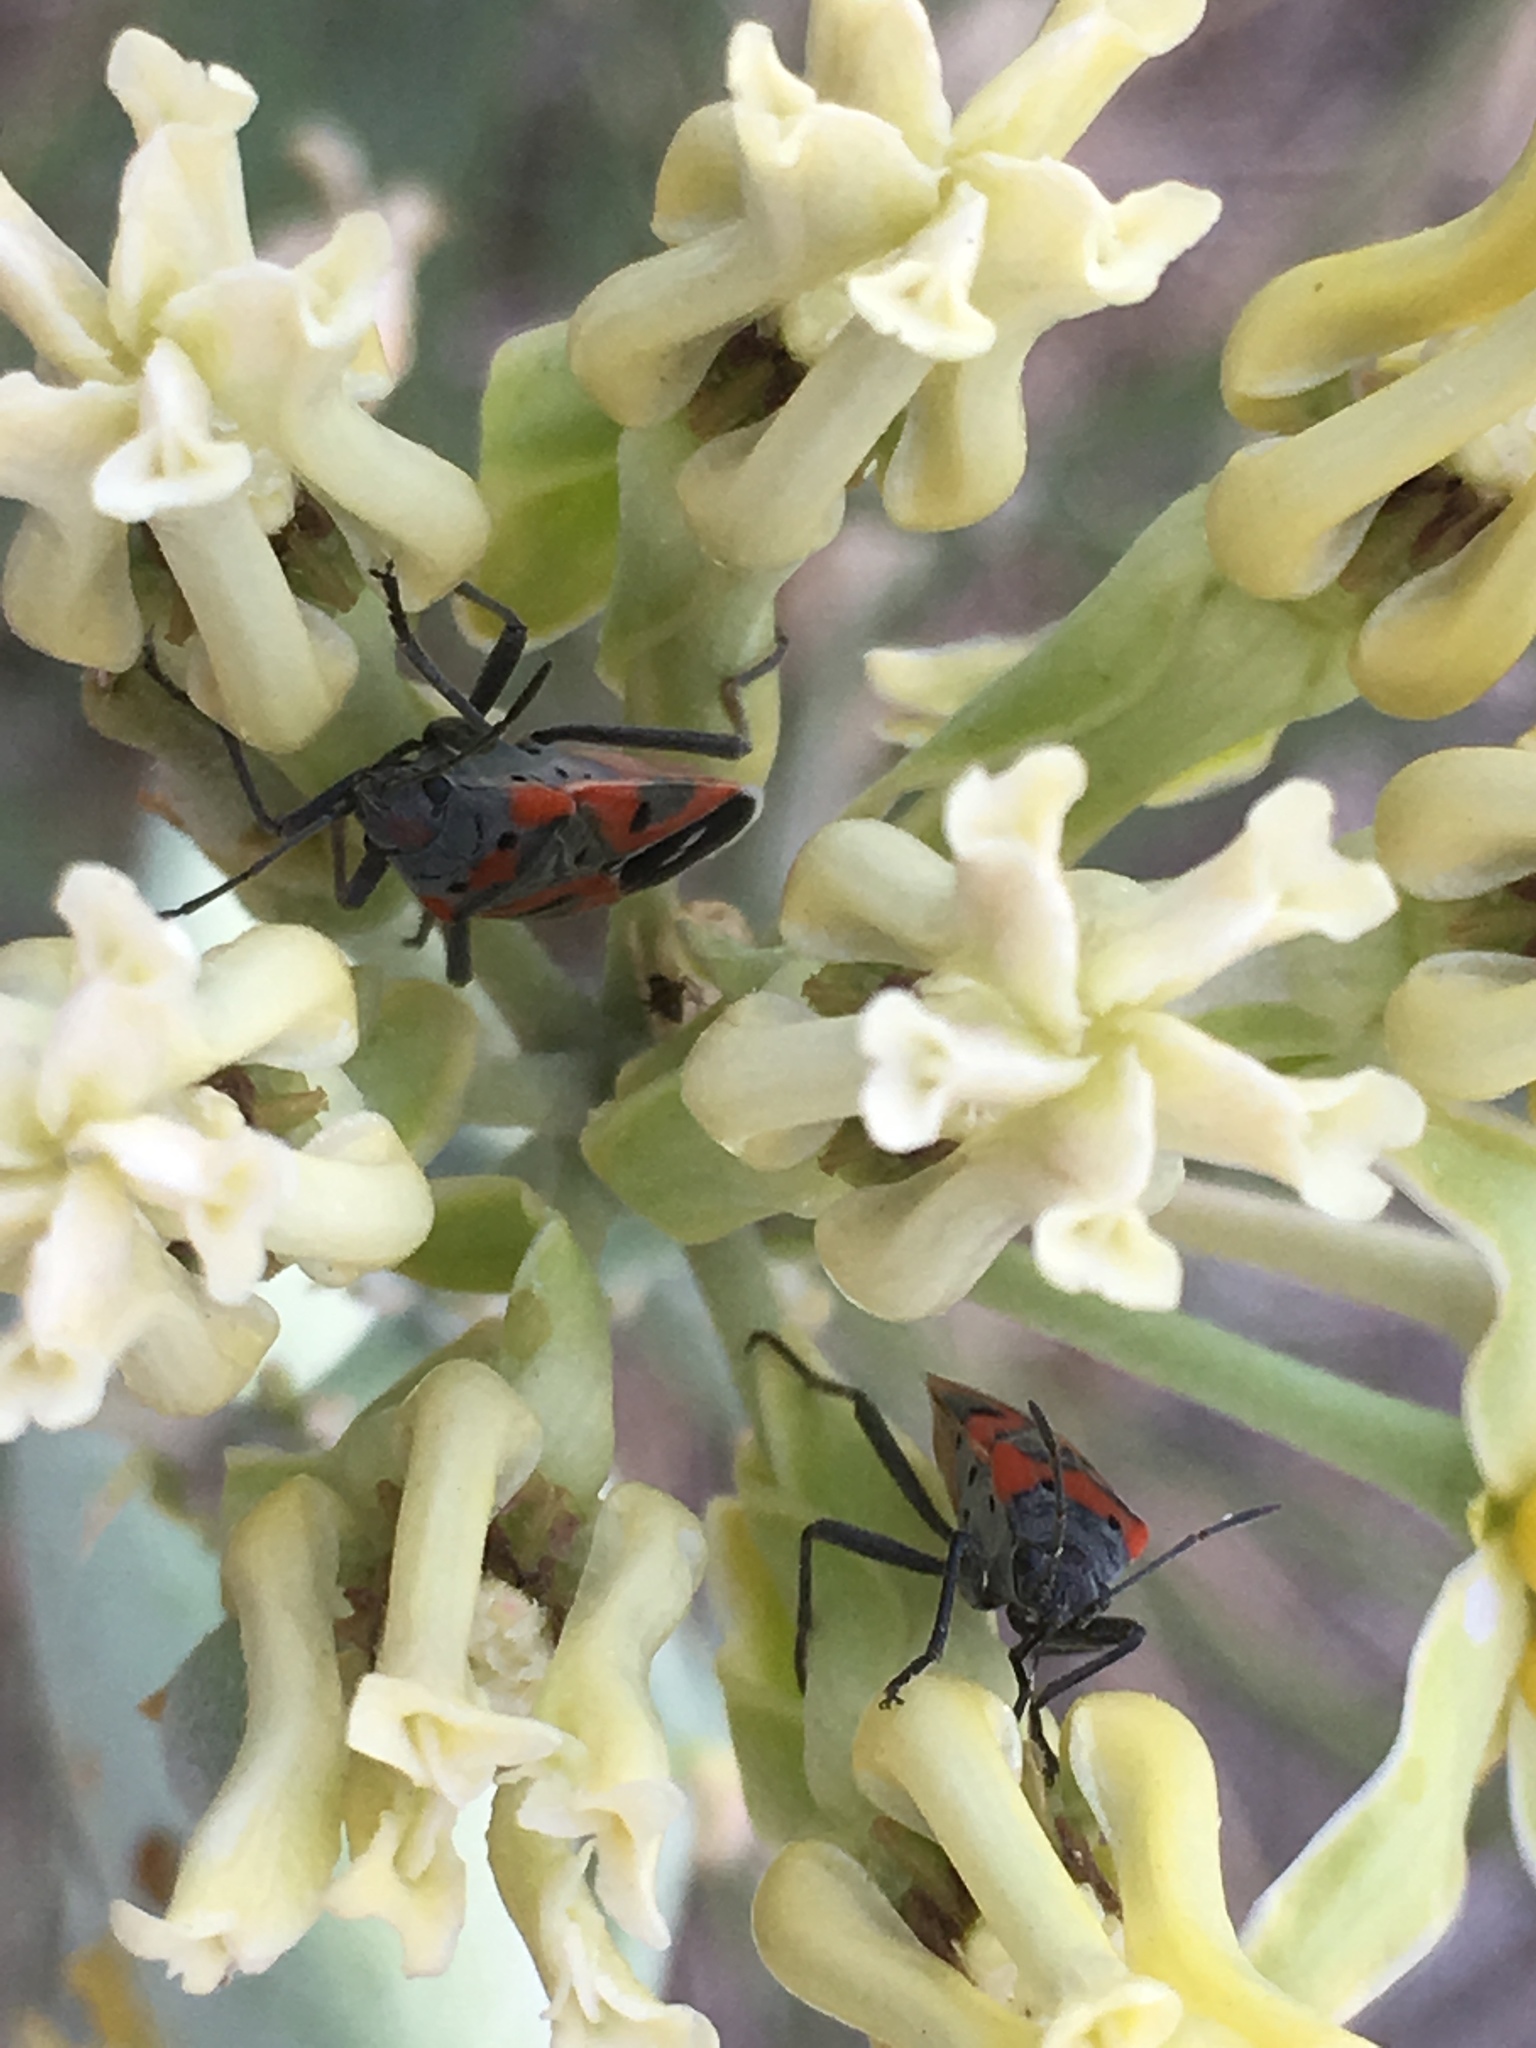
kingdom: Animalia
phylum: Arthropoda
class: Insecta
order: Hemiptera
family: Lygaeidae
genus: Lygaeus
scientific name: Lygaeus kalmii
